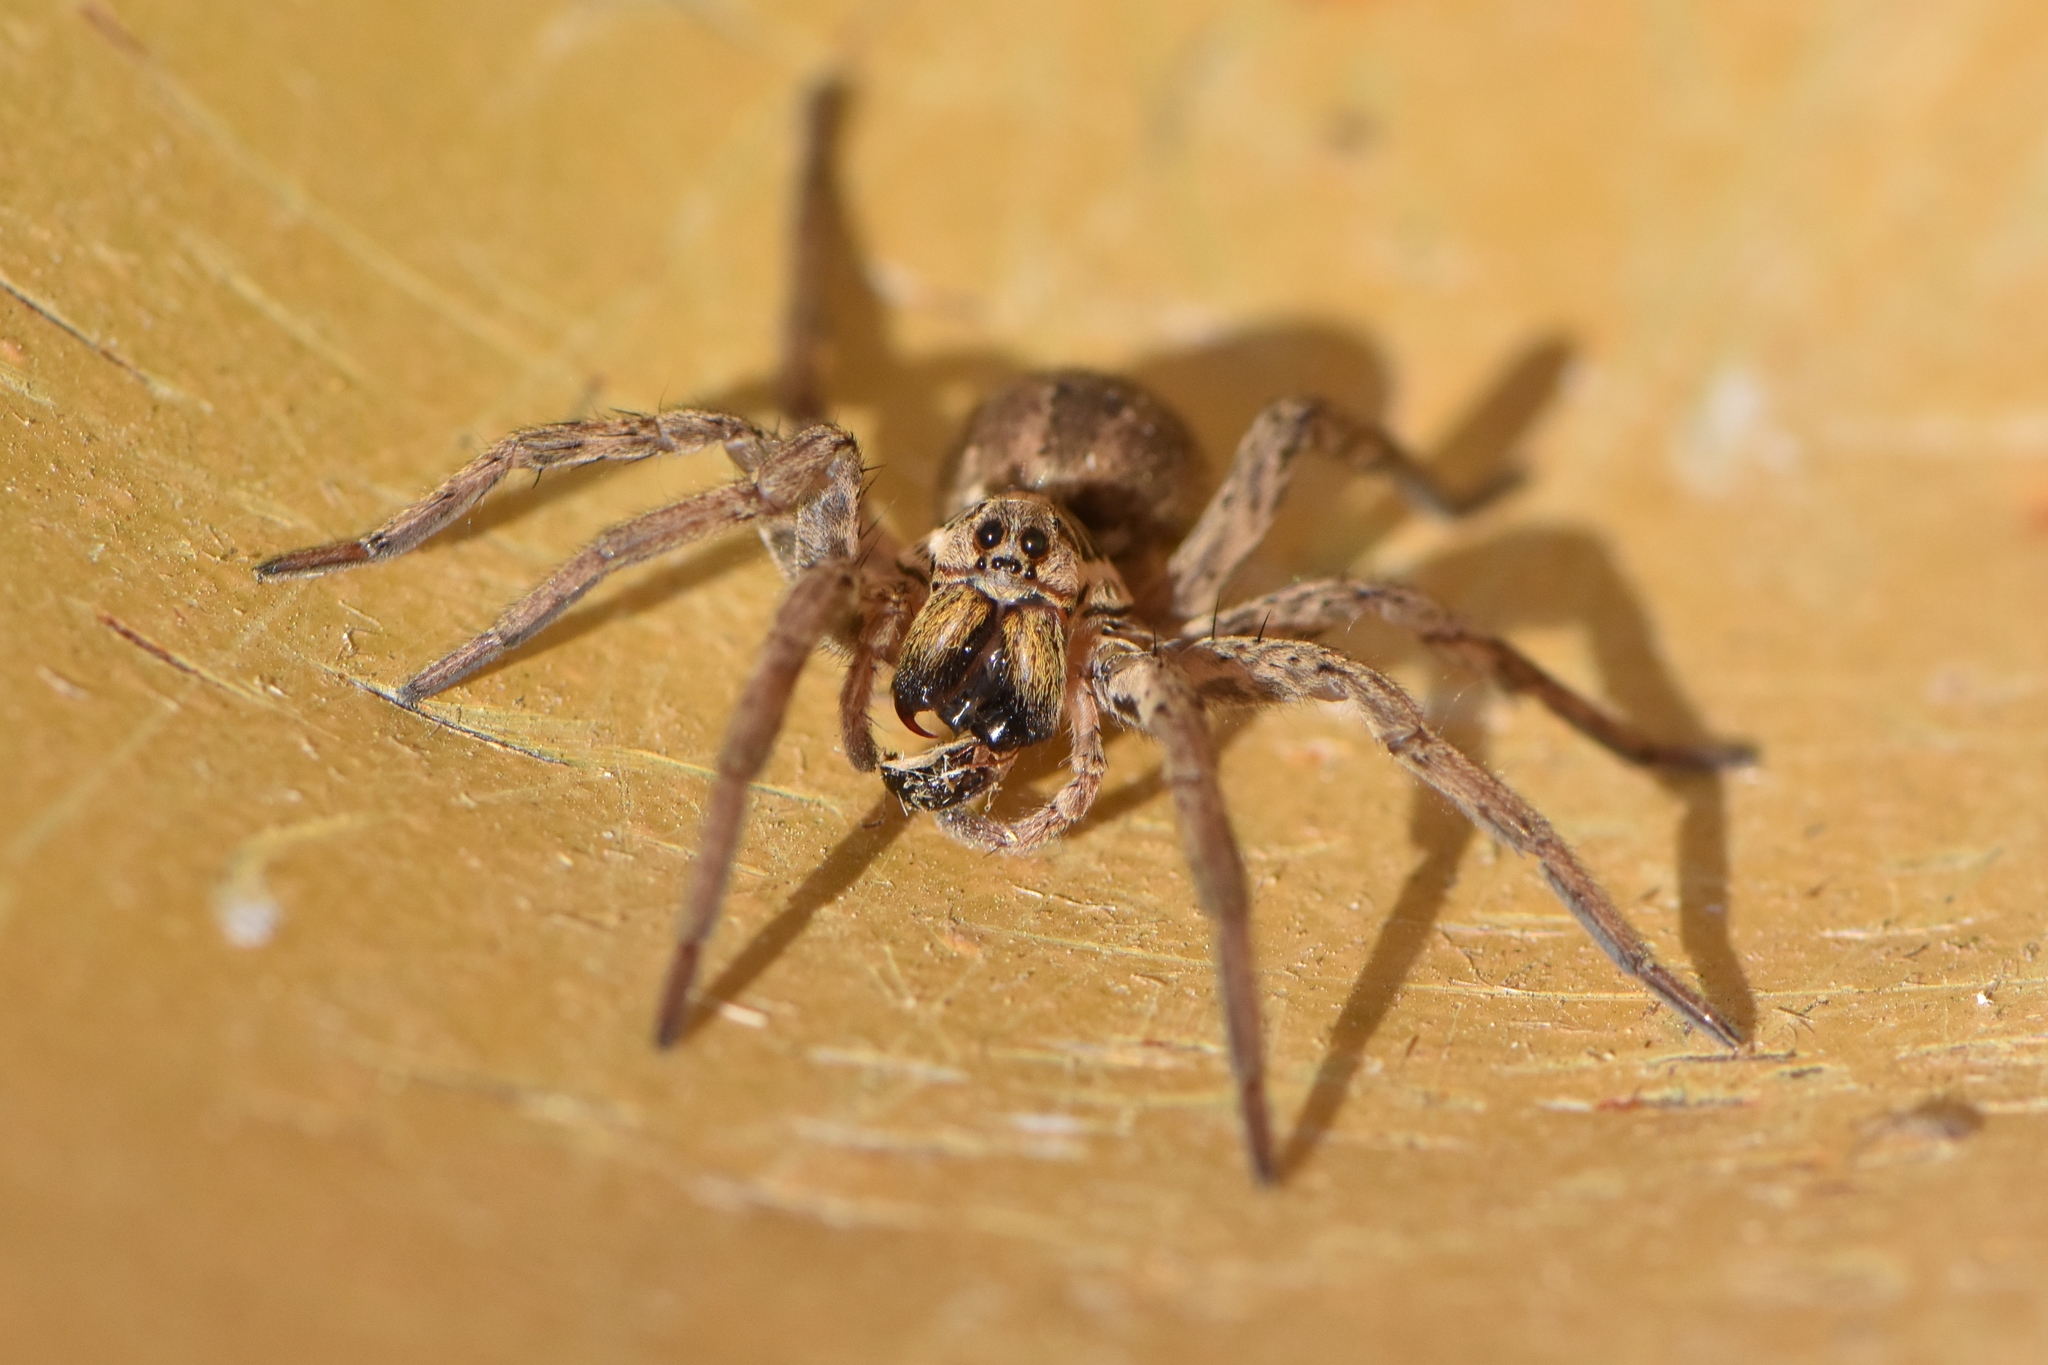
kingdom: Animalia
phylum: Arthropoda
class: Arachnida
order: Araneae
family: Lycosidae
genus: Hogna
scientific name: Hogna radiata
